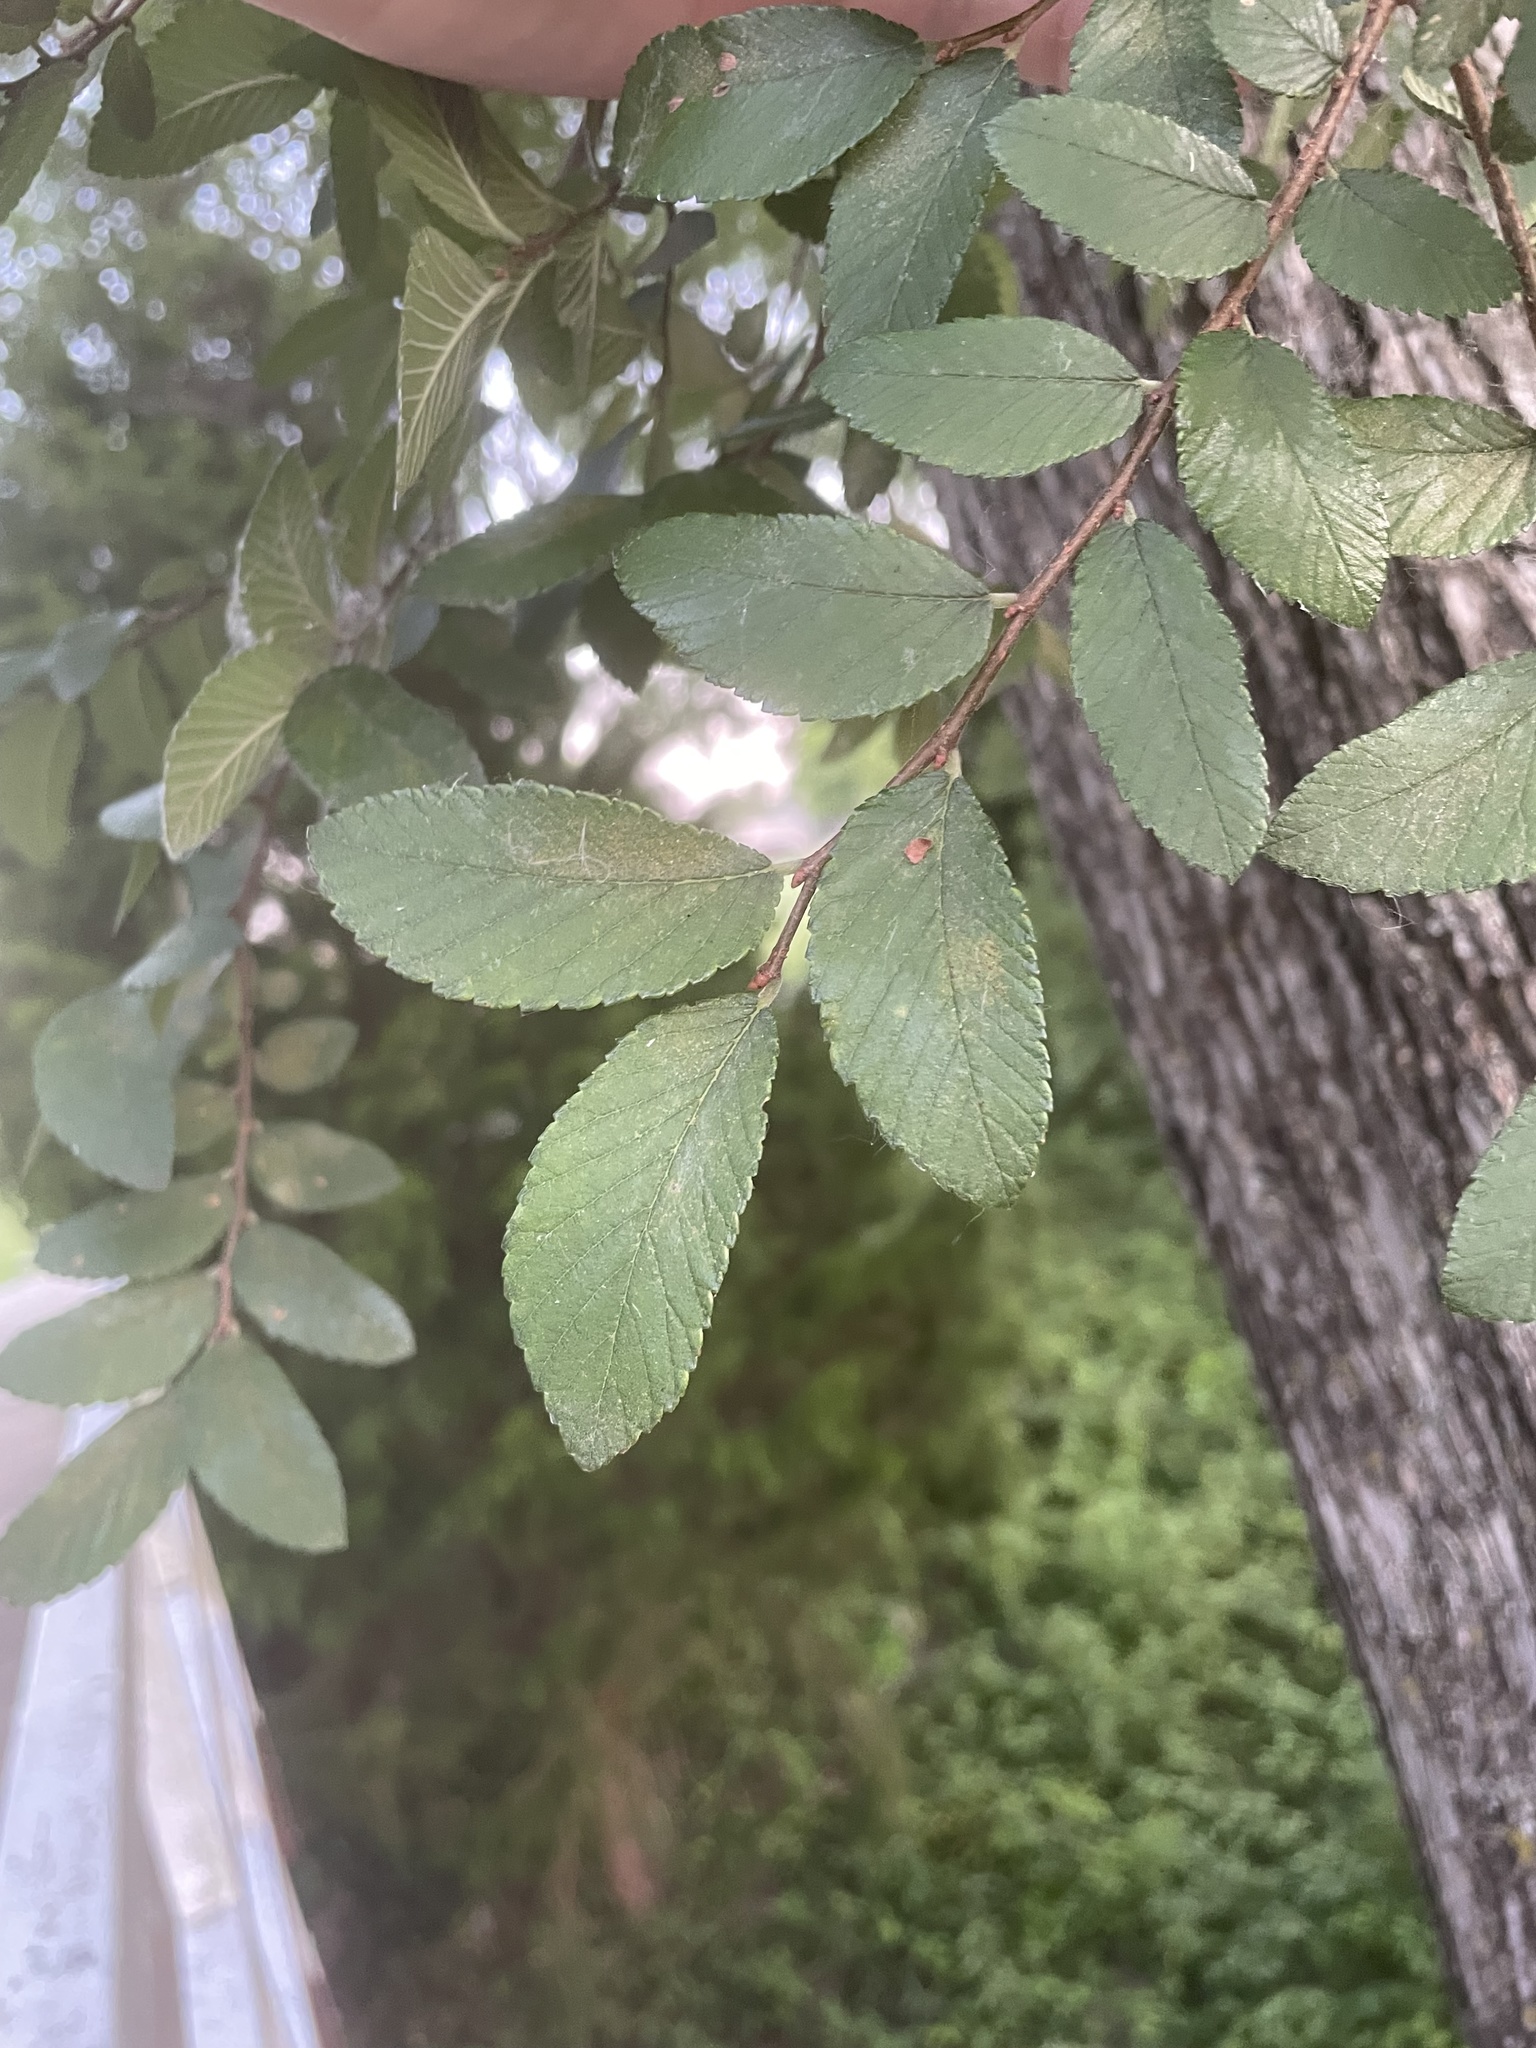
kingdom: Plantae
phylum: Tracheophyta
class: Magnoliopsida
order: Rosales
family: Ulmaceae
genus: Ulmus
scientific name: Ulmus crassifolia
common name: Basket elm
